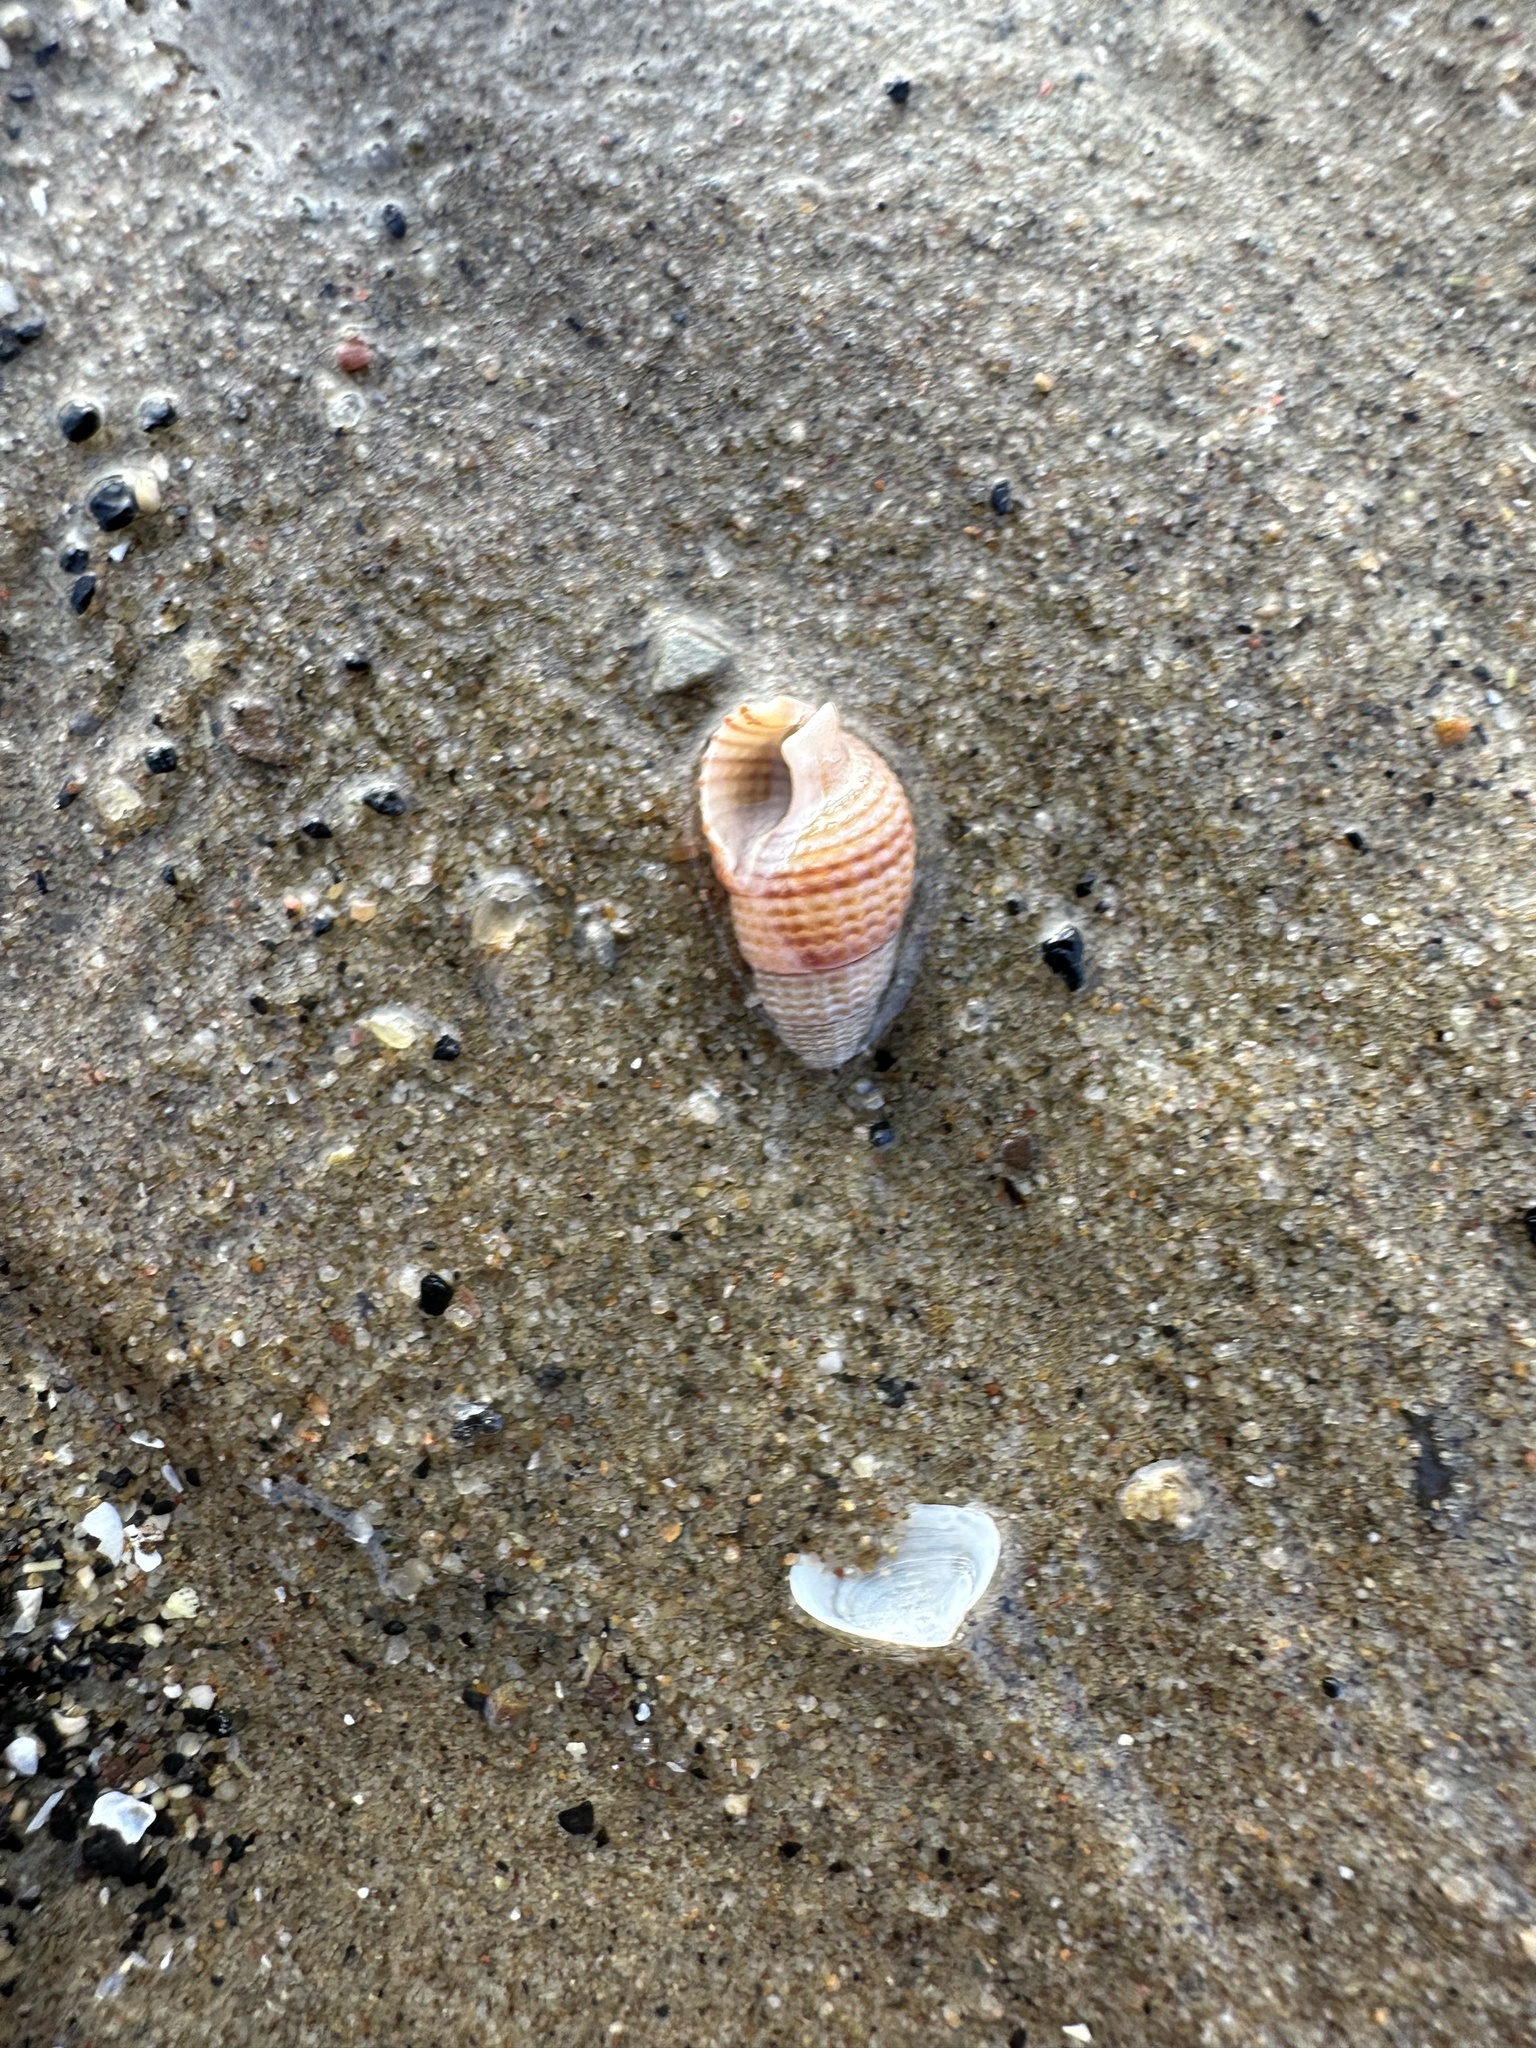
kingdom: Animalia
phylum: Mollusca
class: Gastropoda
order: Neogastropoda
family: Nassariidae
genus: Ilyanassa
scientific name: Ilyanassa trivittata
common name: Three-line mudsnail
